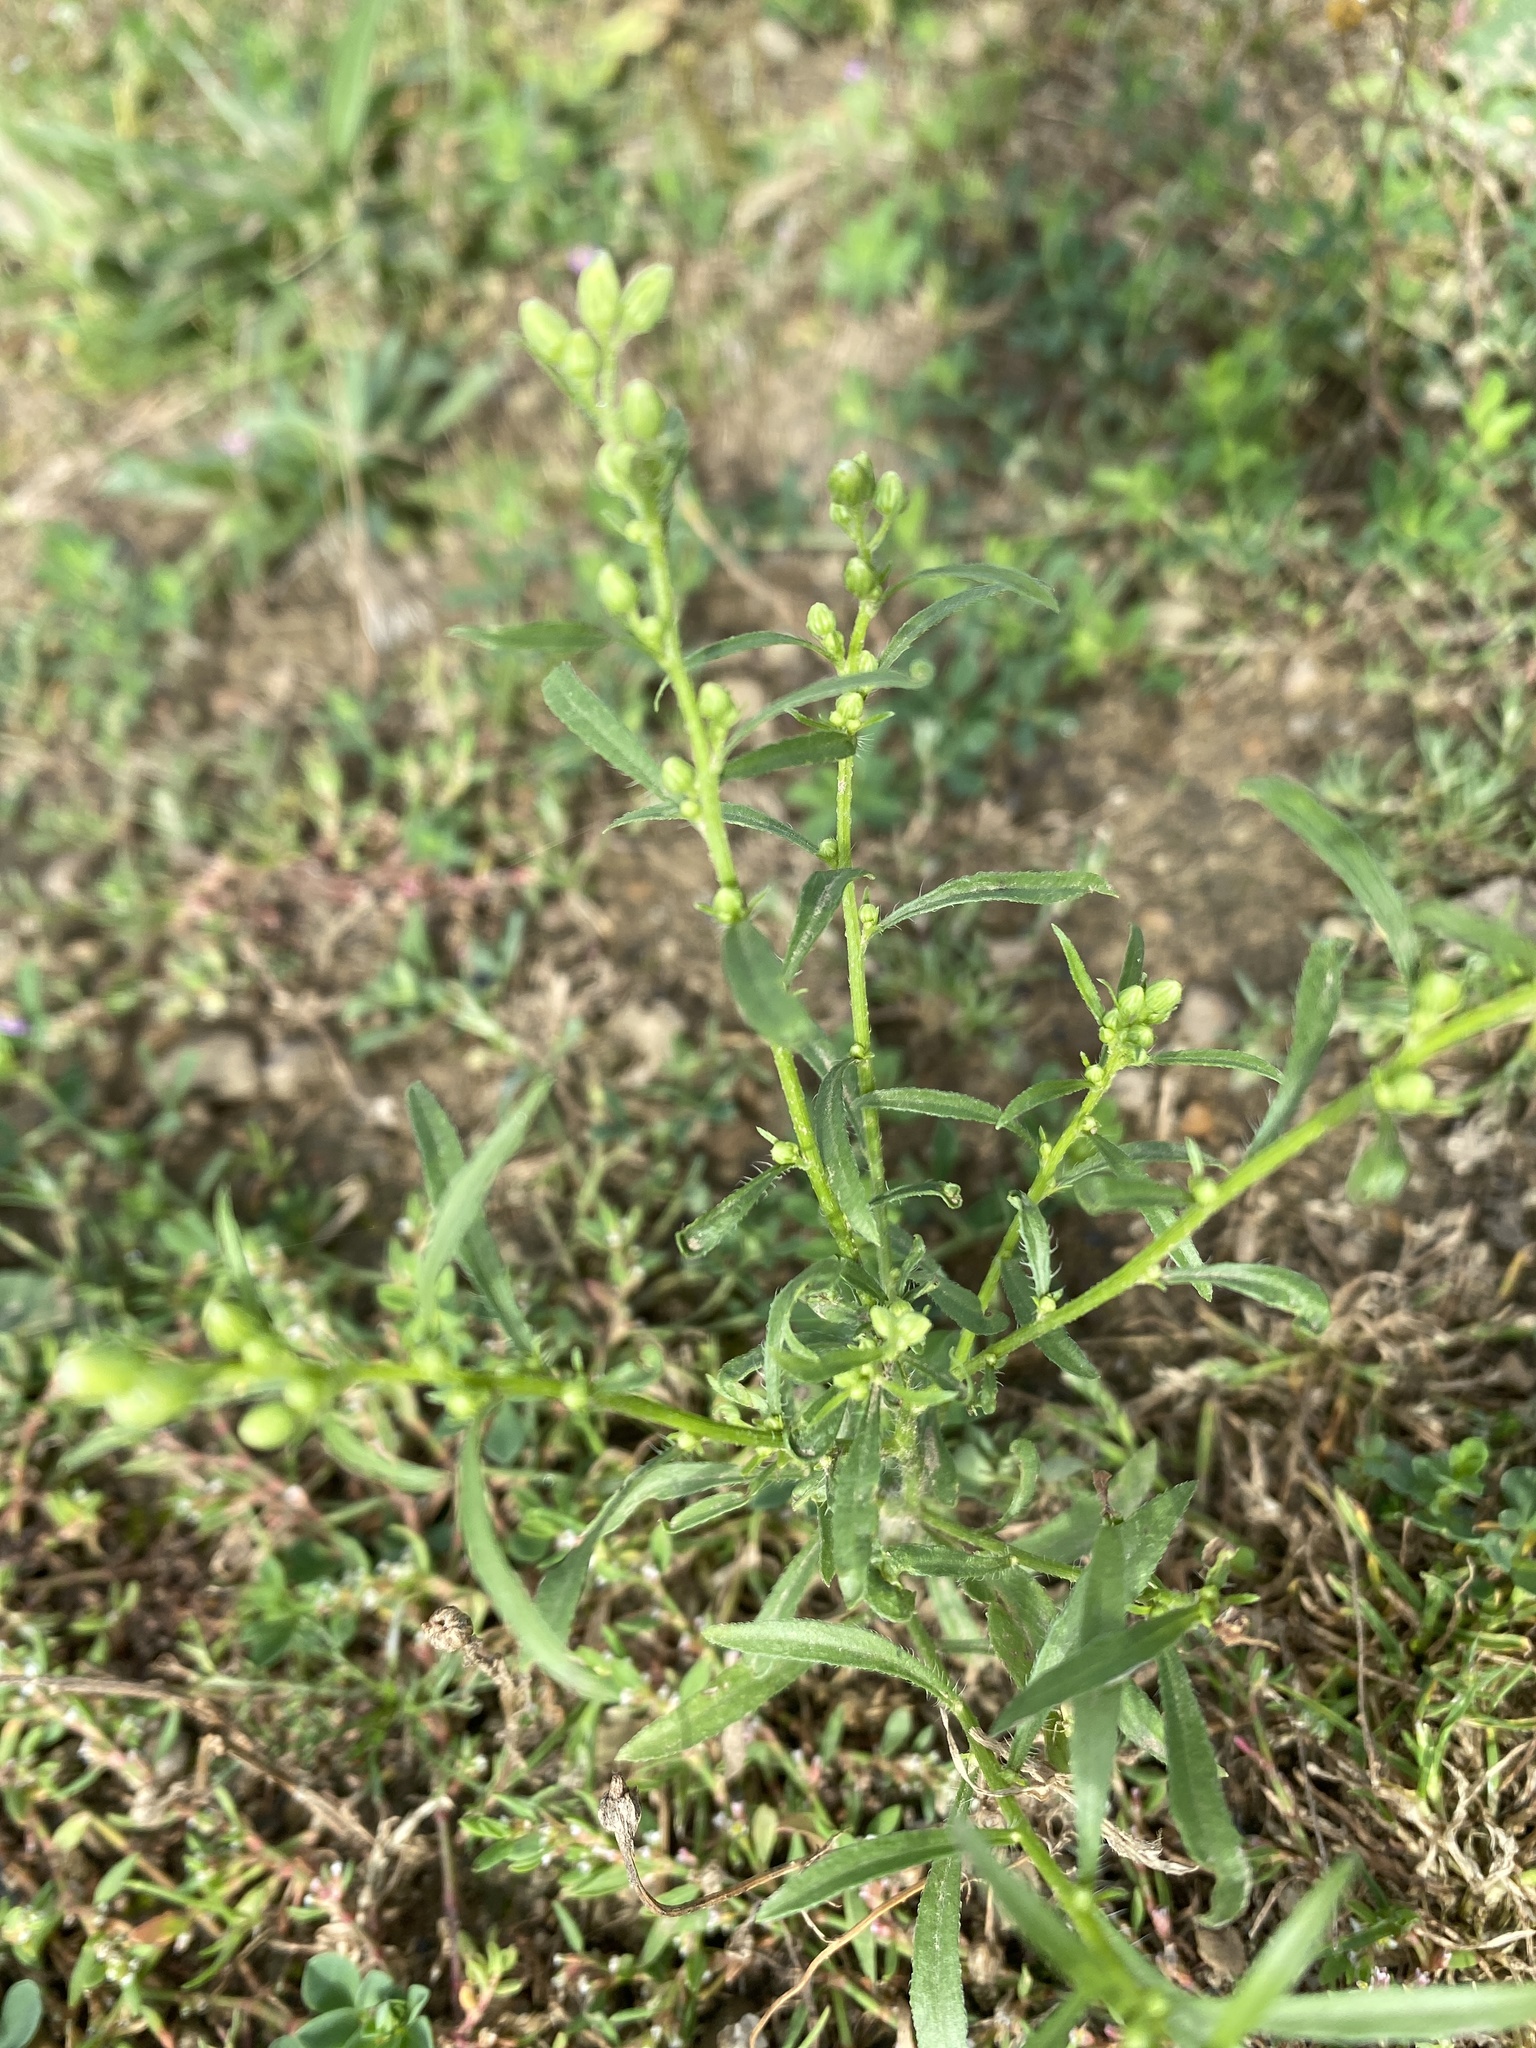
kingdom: Plantae
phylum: Tracheophyta
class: Magnoliopsida
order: Asterales
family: Asteraceae
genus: Erigeron
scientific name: Erigeron canadensis
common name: Canadian fleabane
